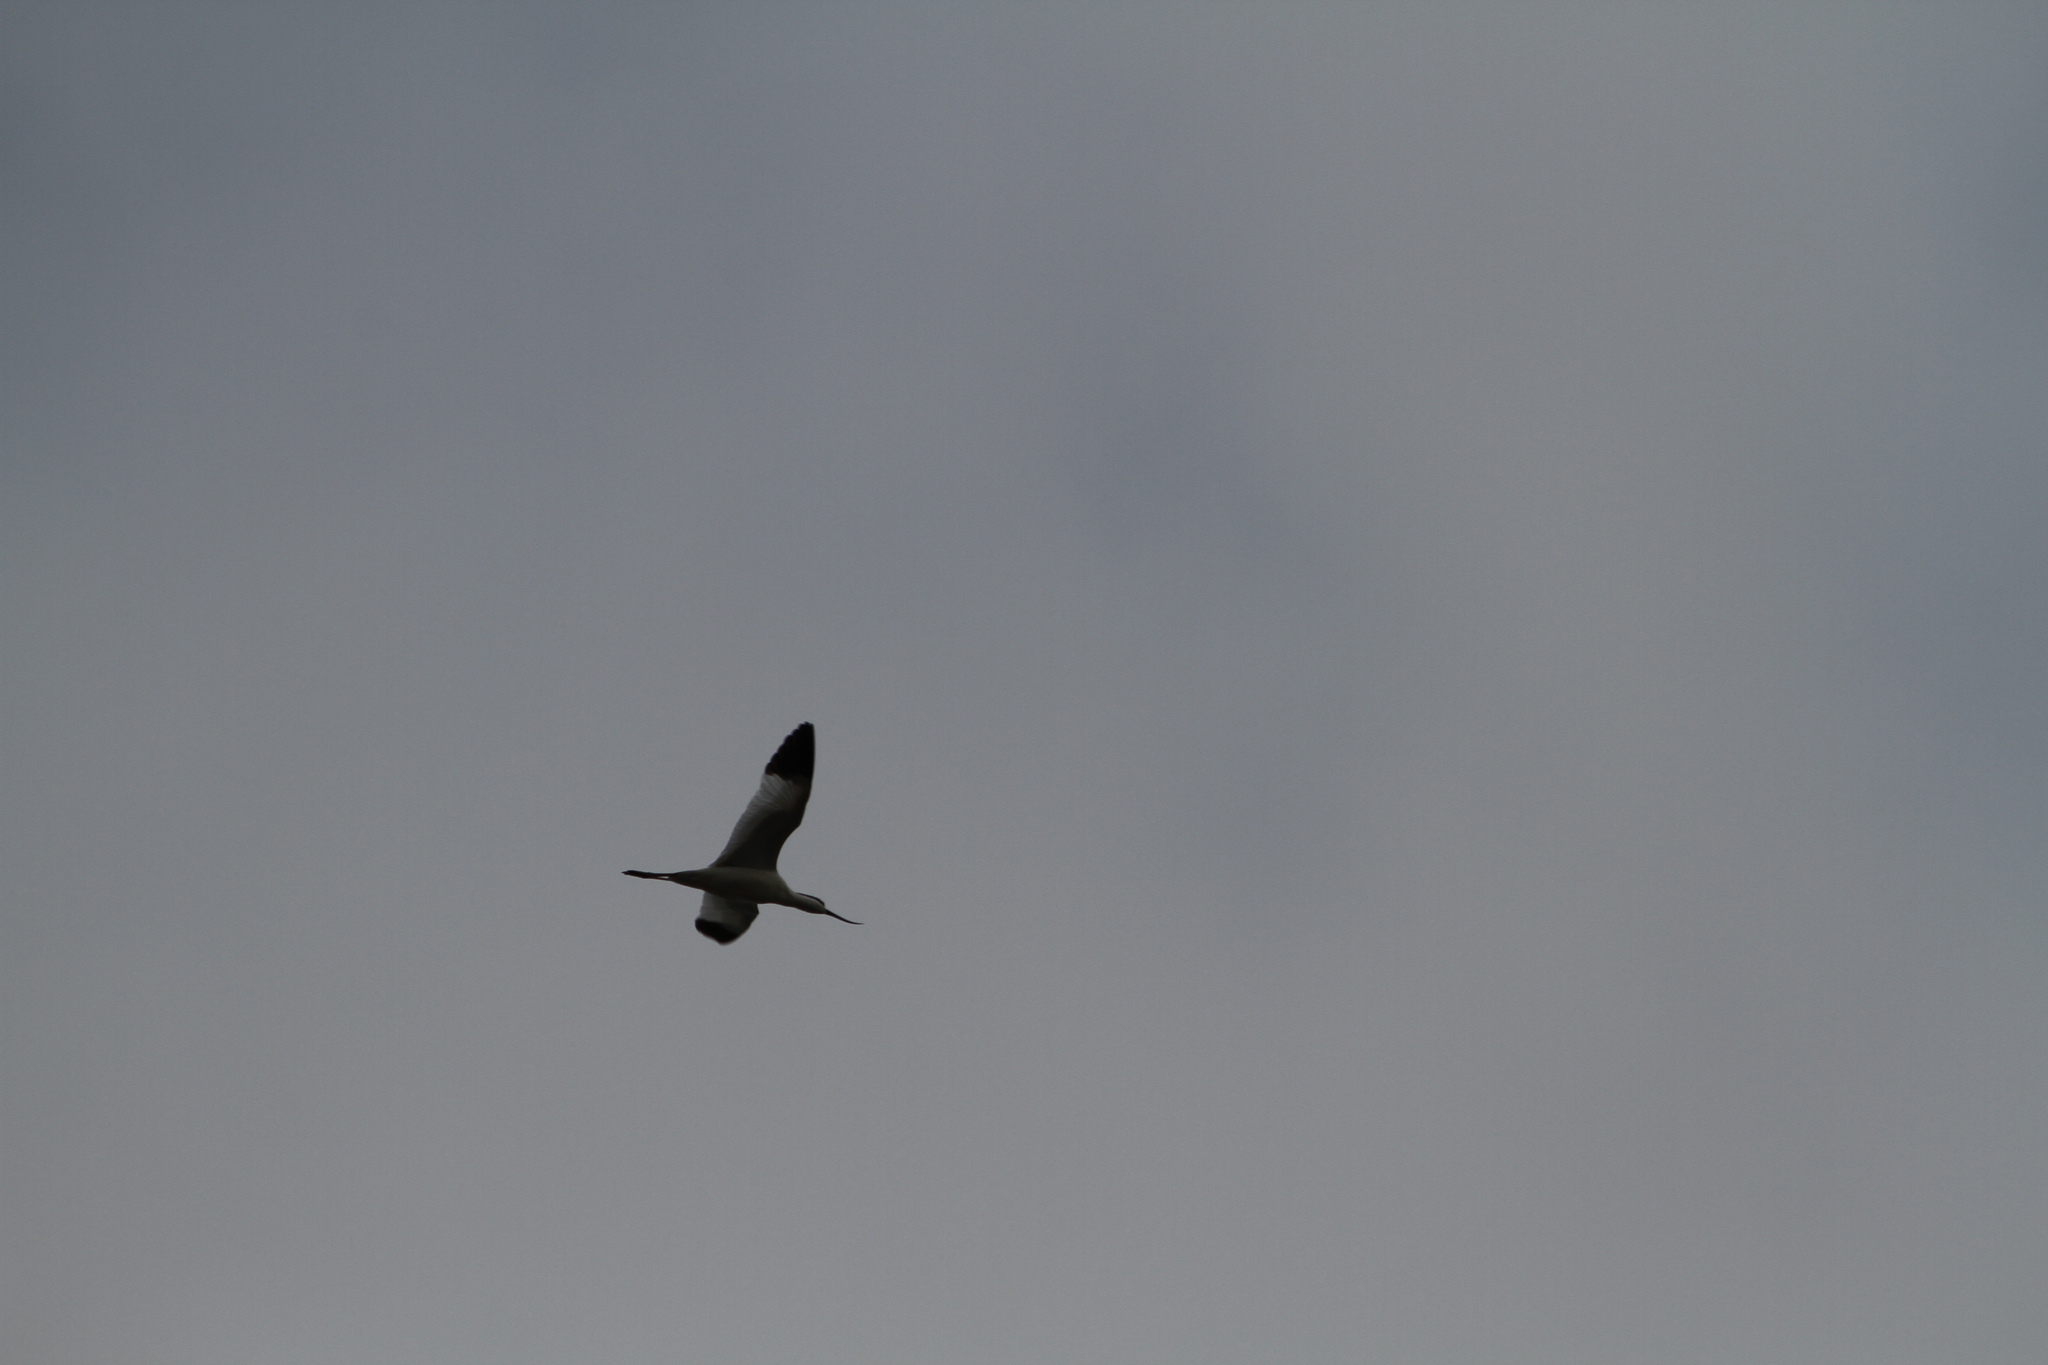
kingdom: Animalia
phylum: Chordata
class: Aves
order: Charadriiformes
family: Recurvirostridae
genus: Recurvirostra
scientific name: Recurvirostra avosetta
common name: Pied avocet
